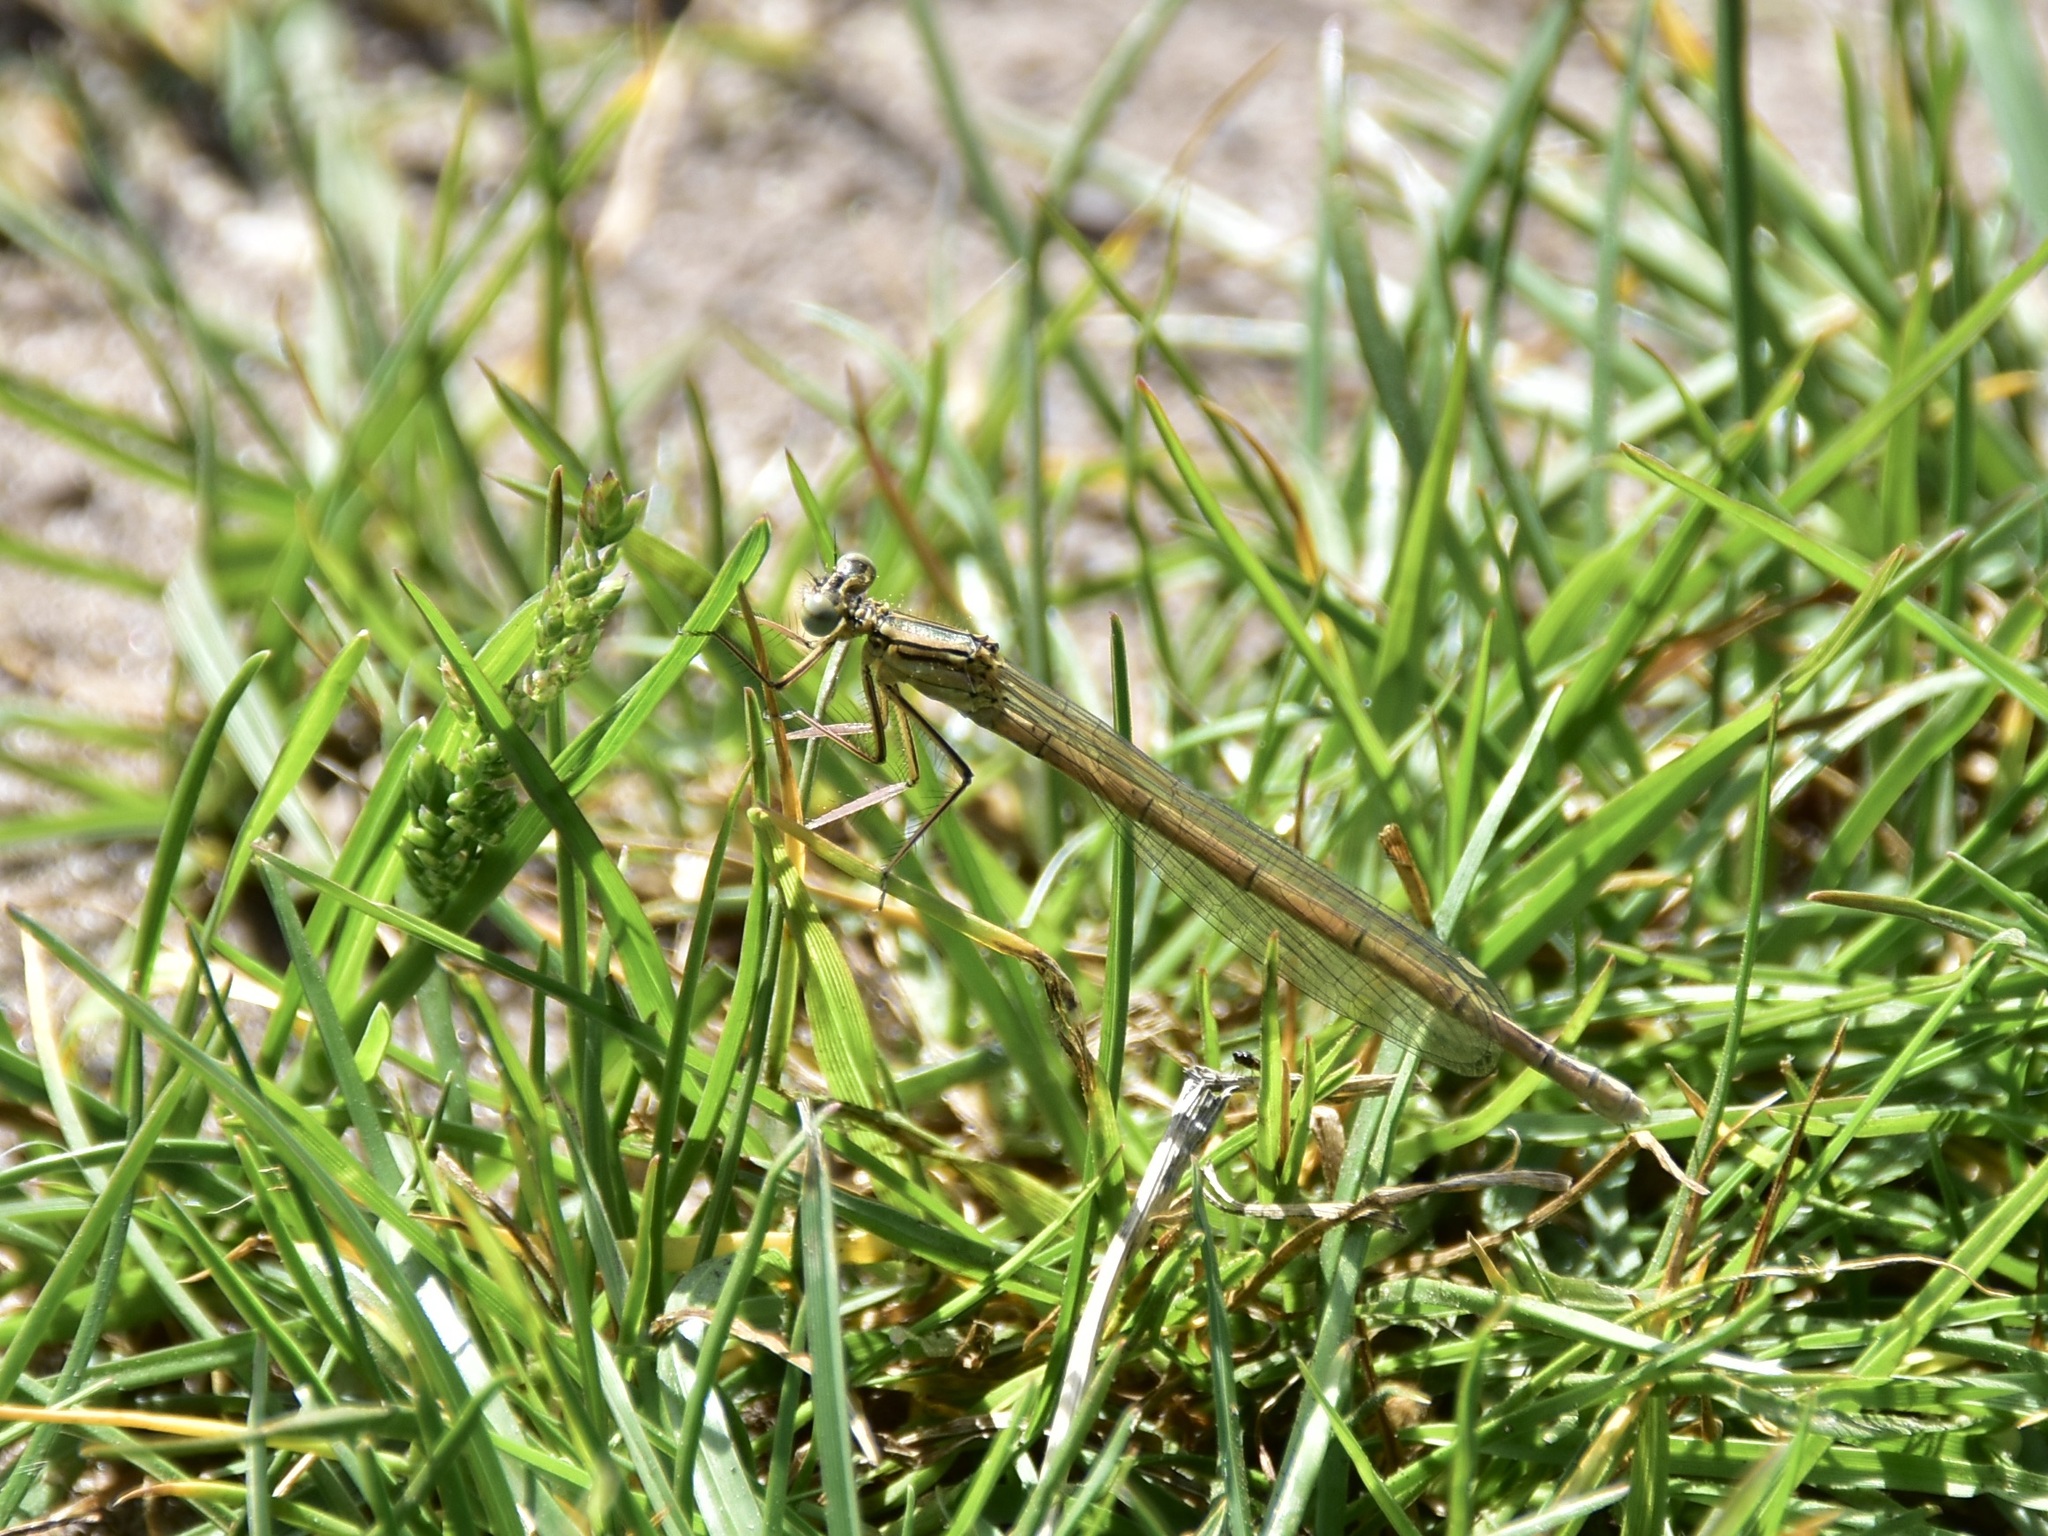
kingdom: Animalia
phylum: Arthropoda
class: Insecta
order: Odonata
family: Platycnemididae
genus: Platycnemis
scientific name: Platycnemis pennipes
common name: White-legged damselfly
